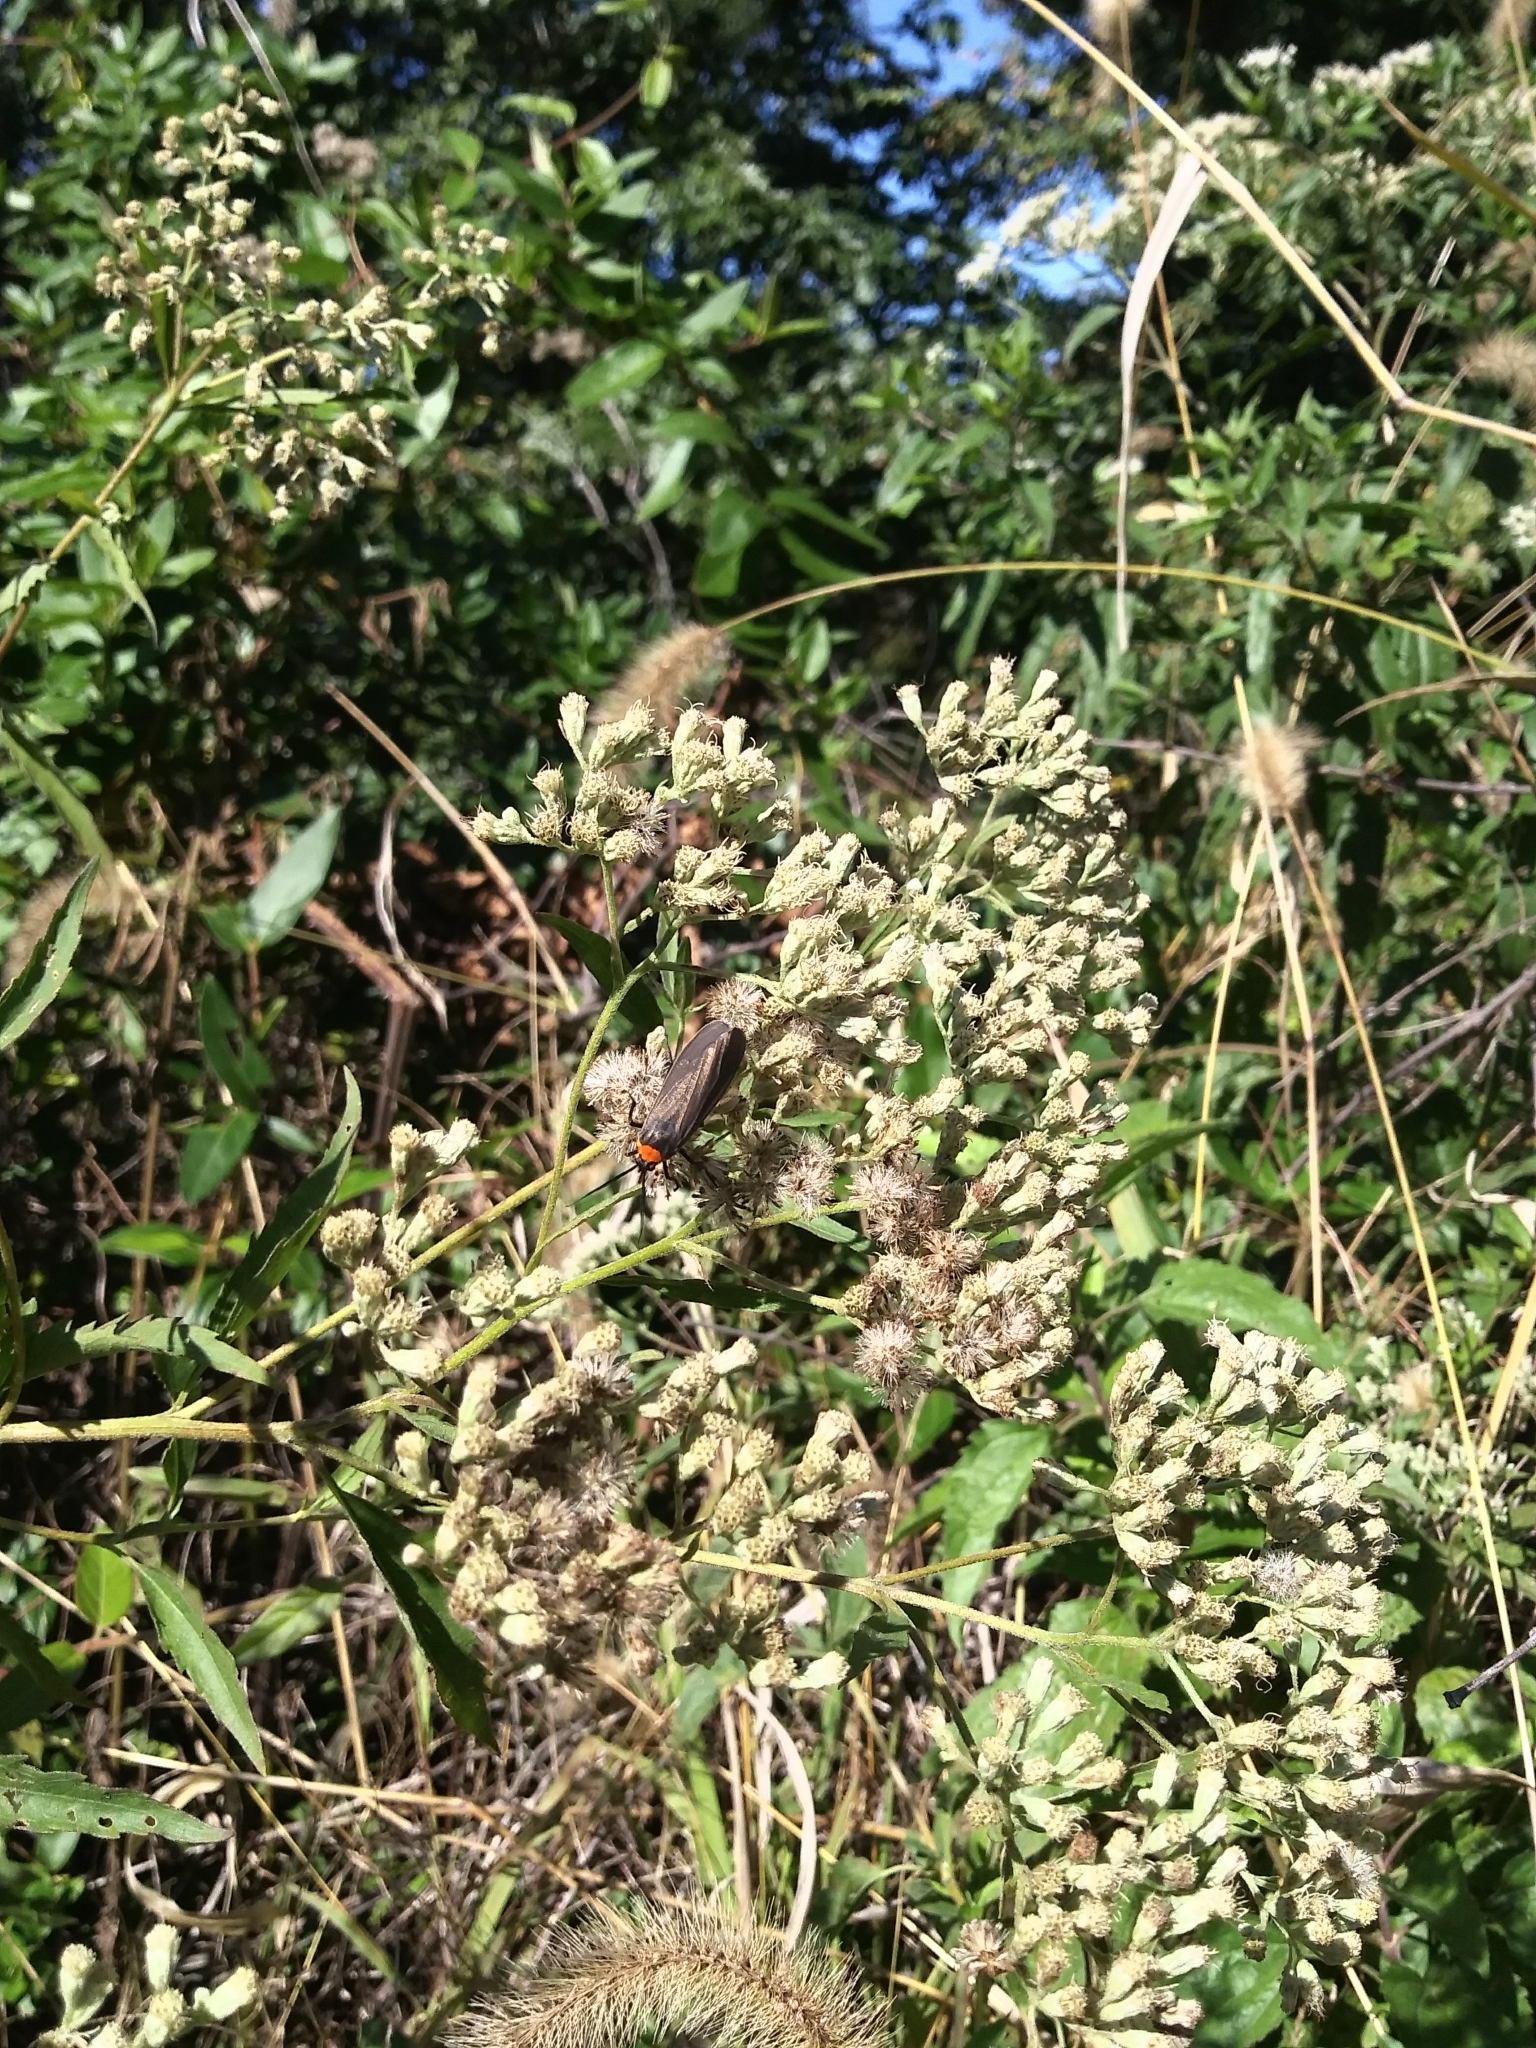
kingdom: Animalia
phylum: Arthropoda
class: Insecta
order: Lepidoptera
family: Erebidae
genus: Cisseps
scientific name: Cisseps fulvicollis
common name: Yellow-collared scape moth
